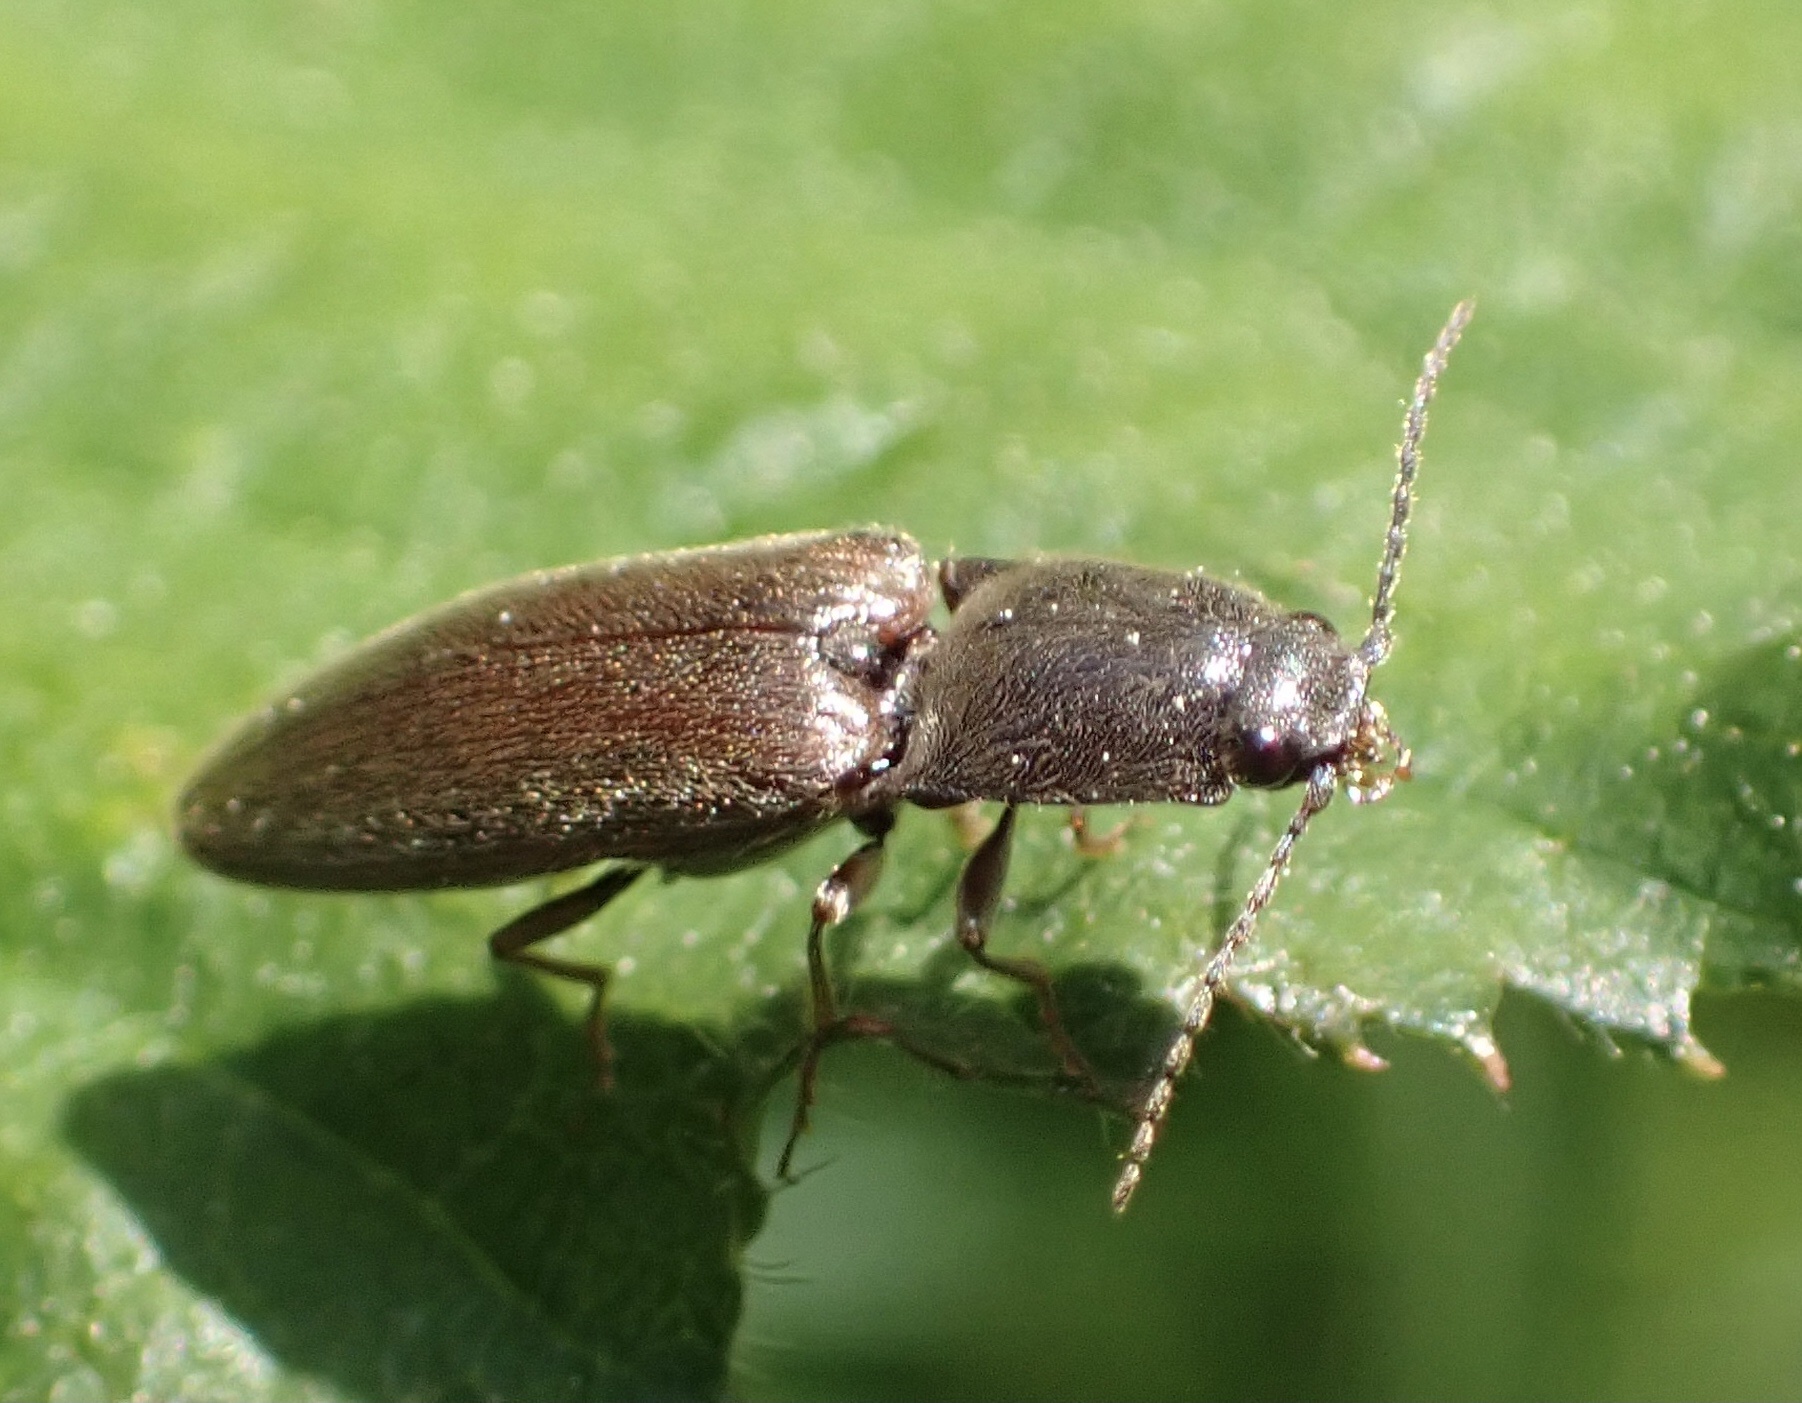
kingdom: Animalia
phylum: Arthropoda
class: Insecta
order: Coleoptera
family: Elateridae
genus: Athous
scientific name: Athous haemorrhoidalis
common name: Red-brown click beetle
